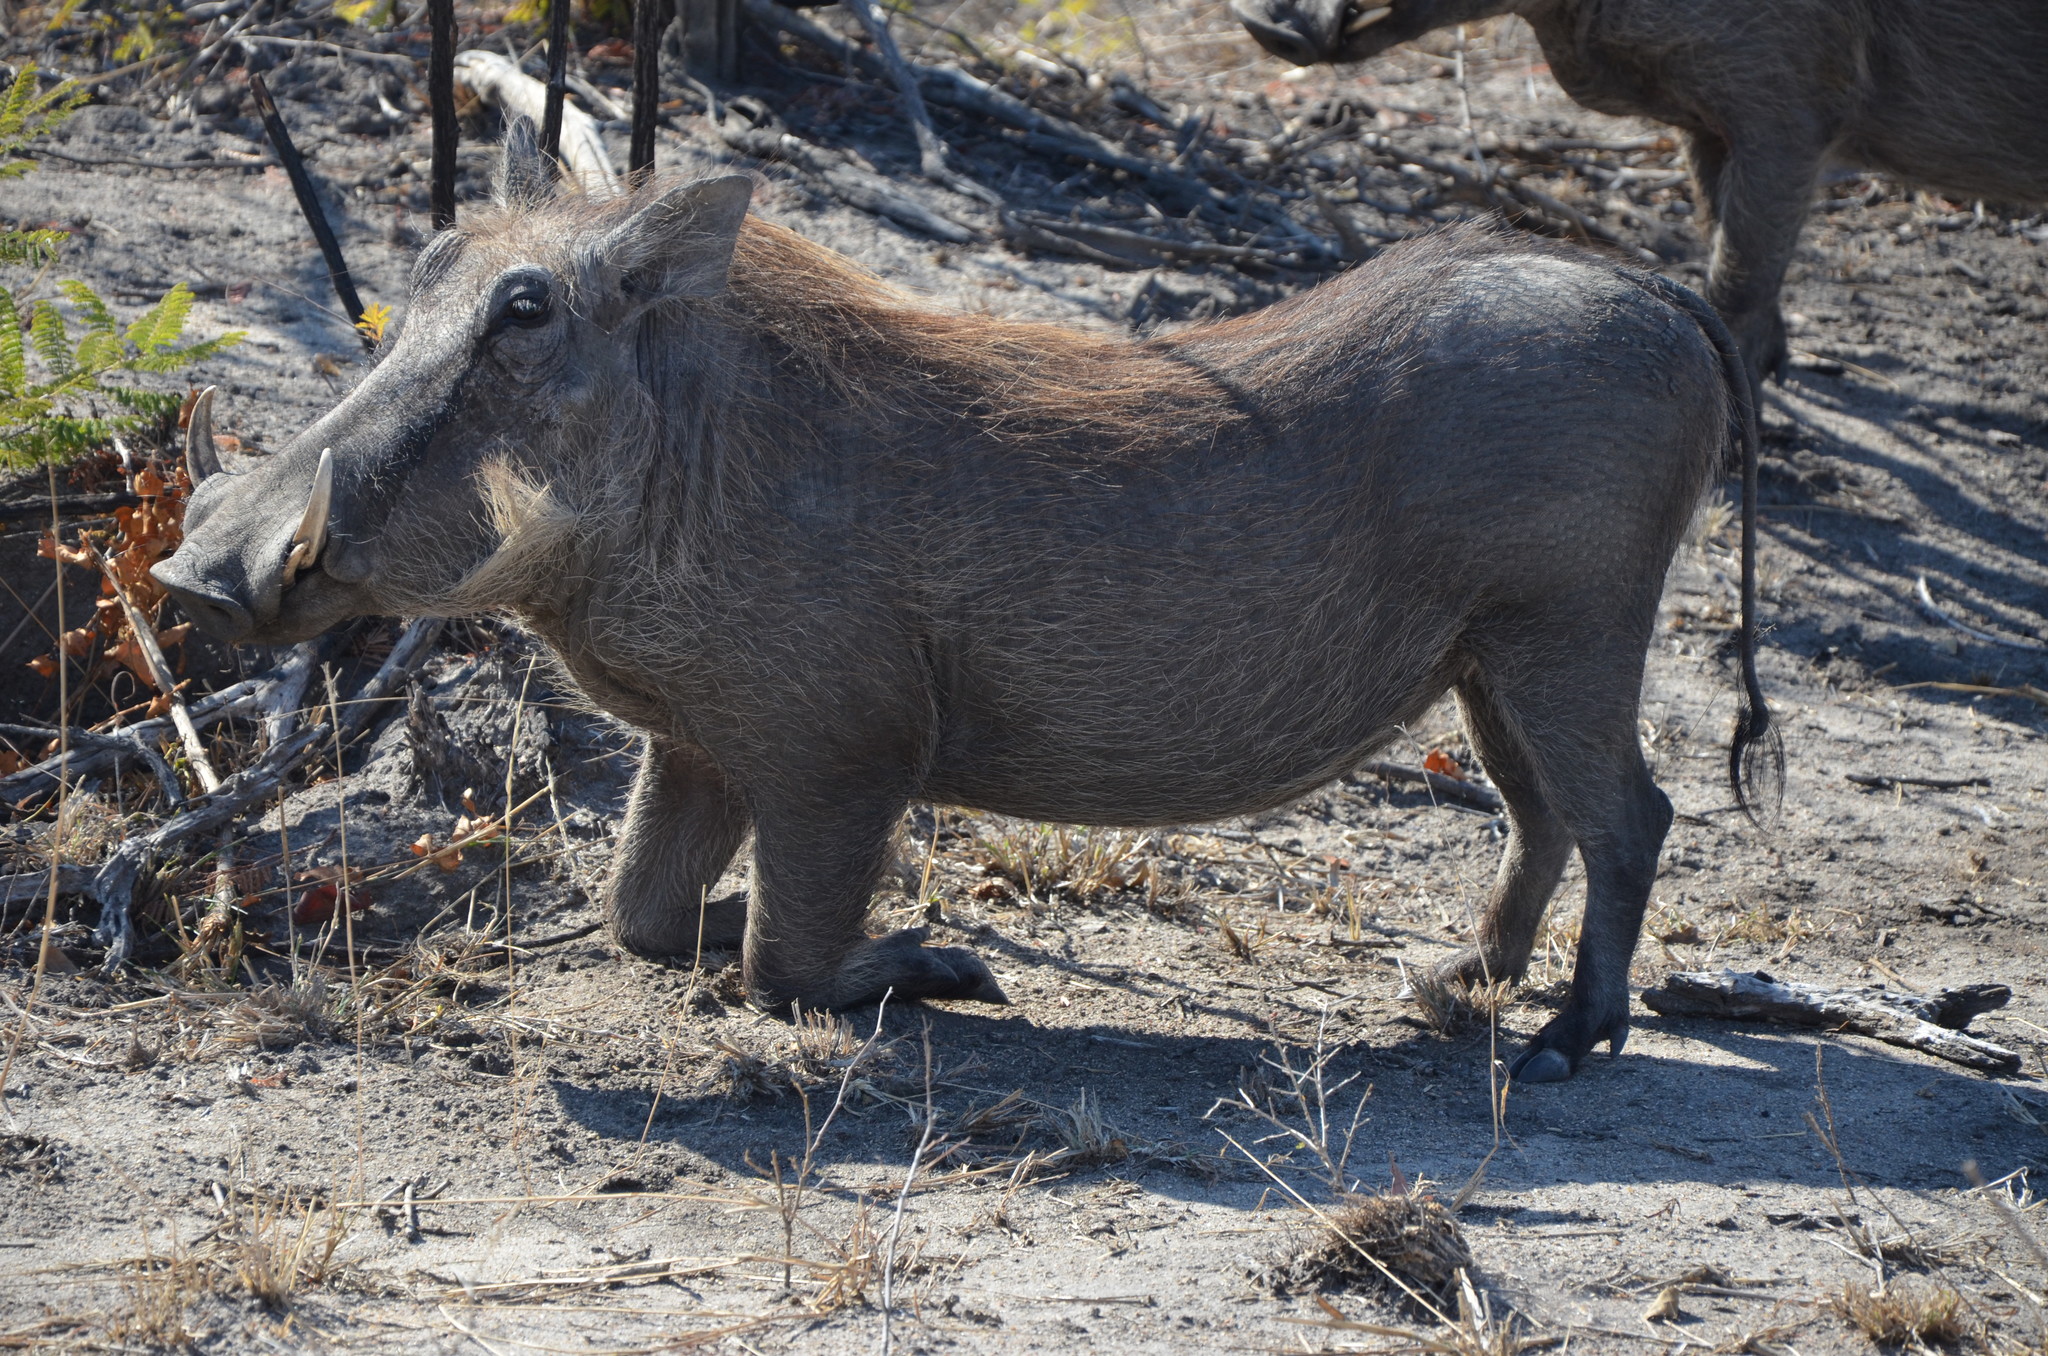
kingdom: Animalia
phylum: Chordata
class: Mammalia
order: Artiodactyla
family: Suidae
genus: Phacochoerus
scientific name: Phacochoerus africanus
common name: Common warthog
